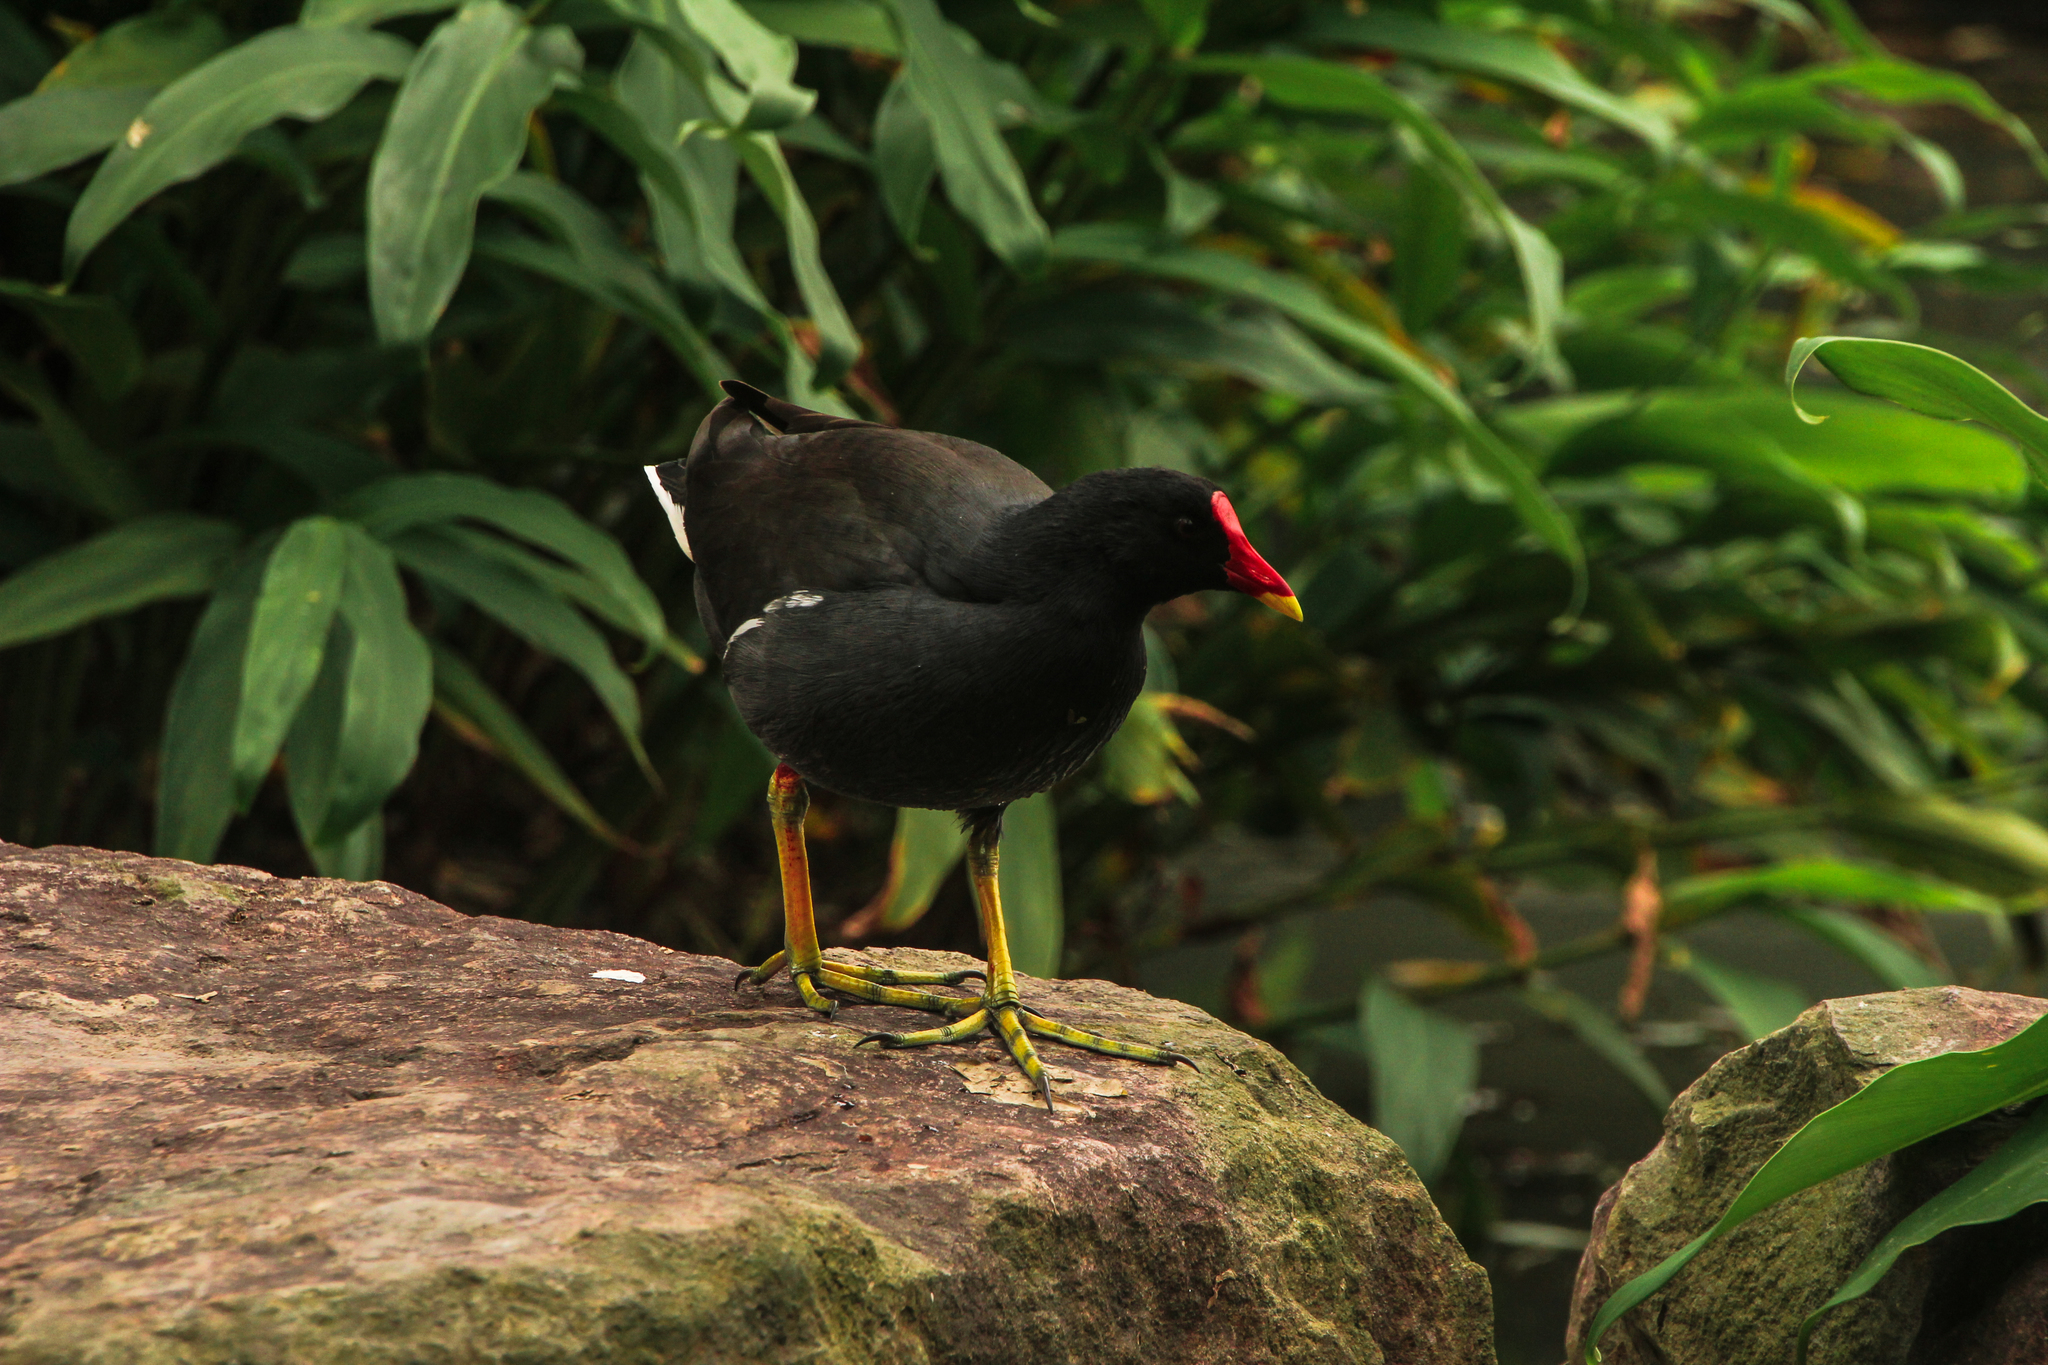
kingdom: Animalia
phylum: Chordata
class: Aves
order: Gruiformes
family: Rallidae
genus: Gallinula
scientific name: Gallinula chloropus
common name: Common moorhen
